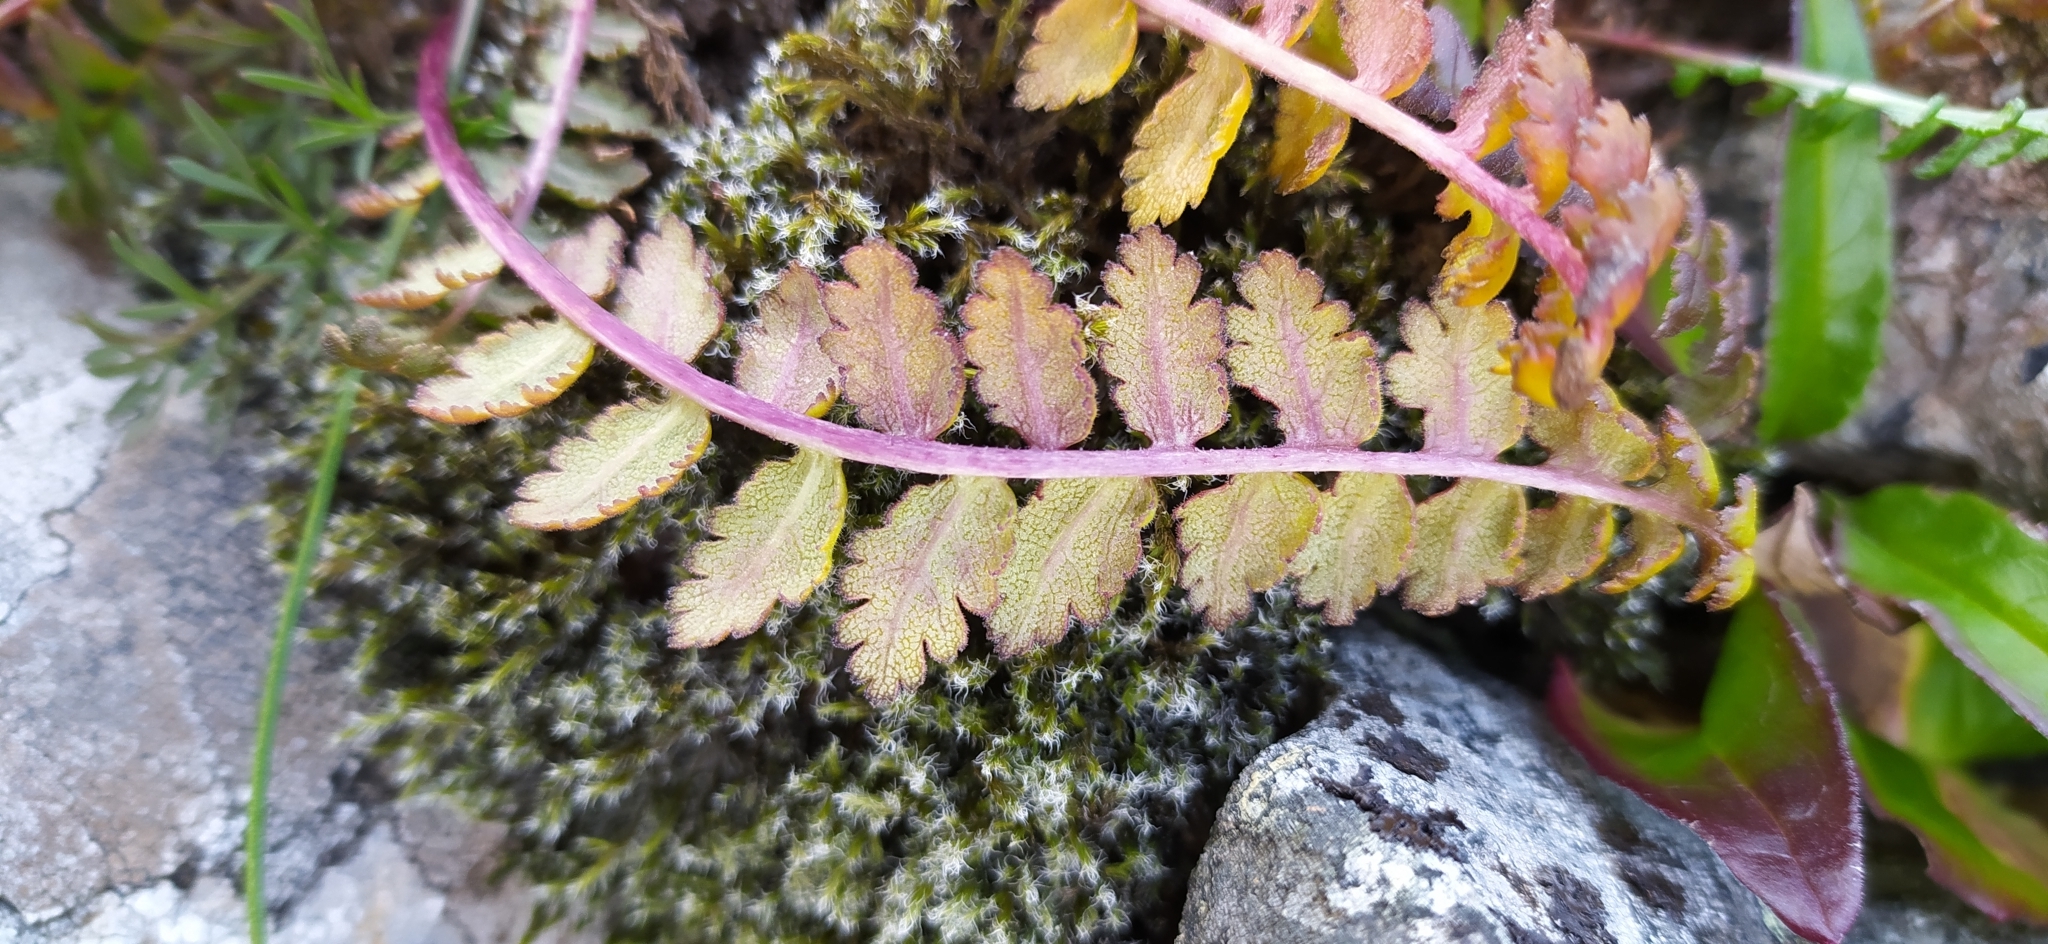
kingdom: Plantae
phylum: Tracheophyta
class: Magnoliopsida
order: Lamiales
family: Orobanchaceae
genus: Pedicularis
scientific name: Pedicularis oederi
